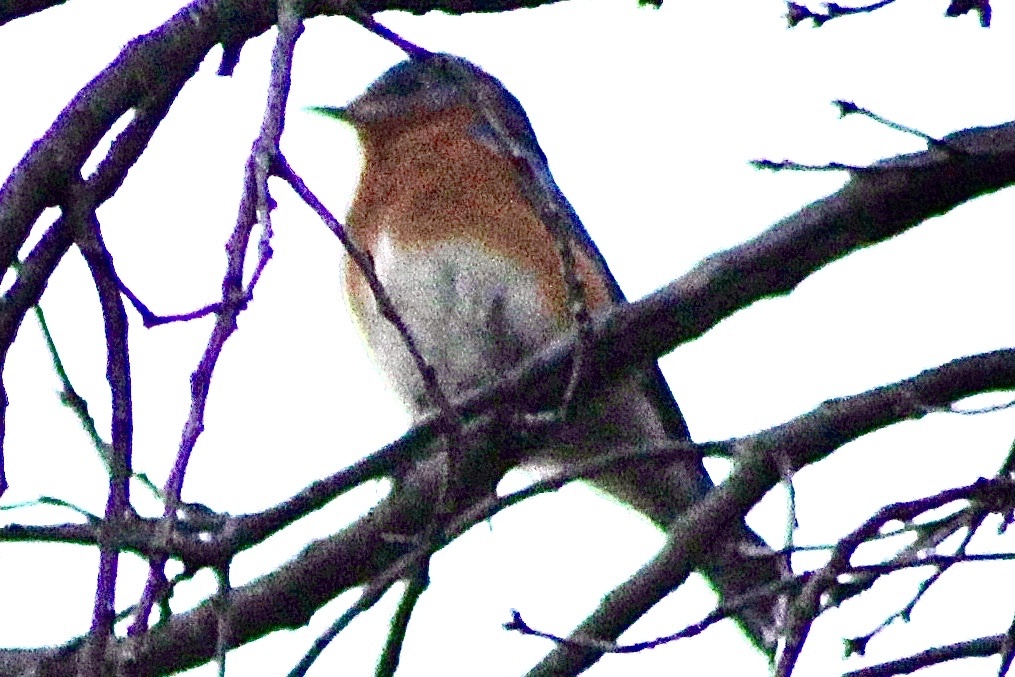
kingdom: Animalia
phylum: Chordata
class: Aves
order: Passeriformes
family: Turdidae
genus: Sialia
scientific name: Sialia sialis
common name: Eastern bluebird
